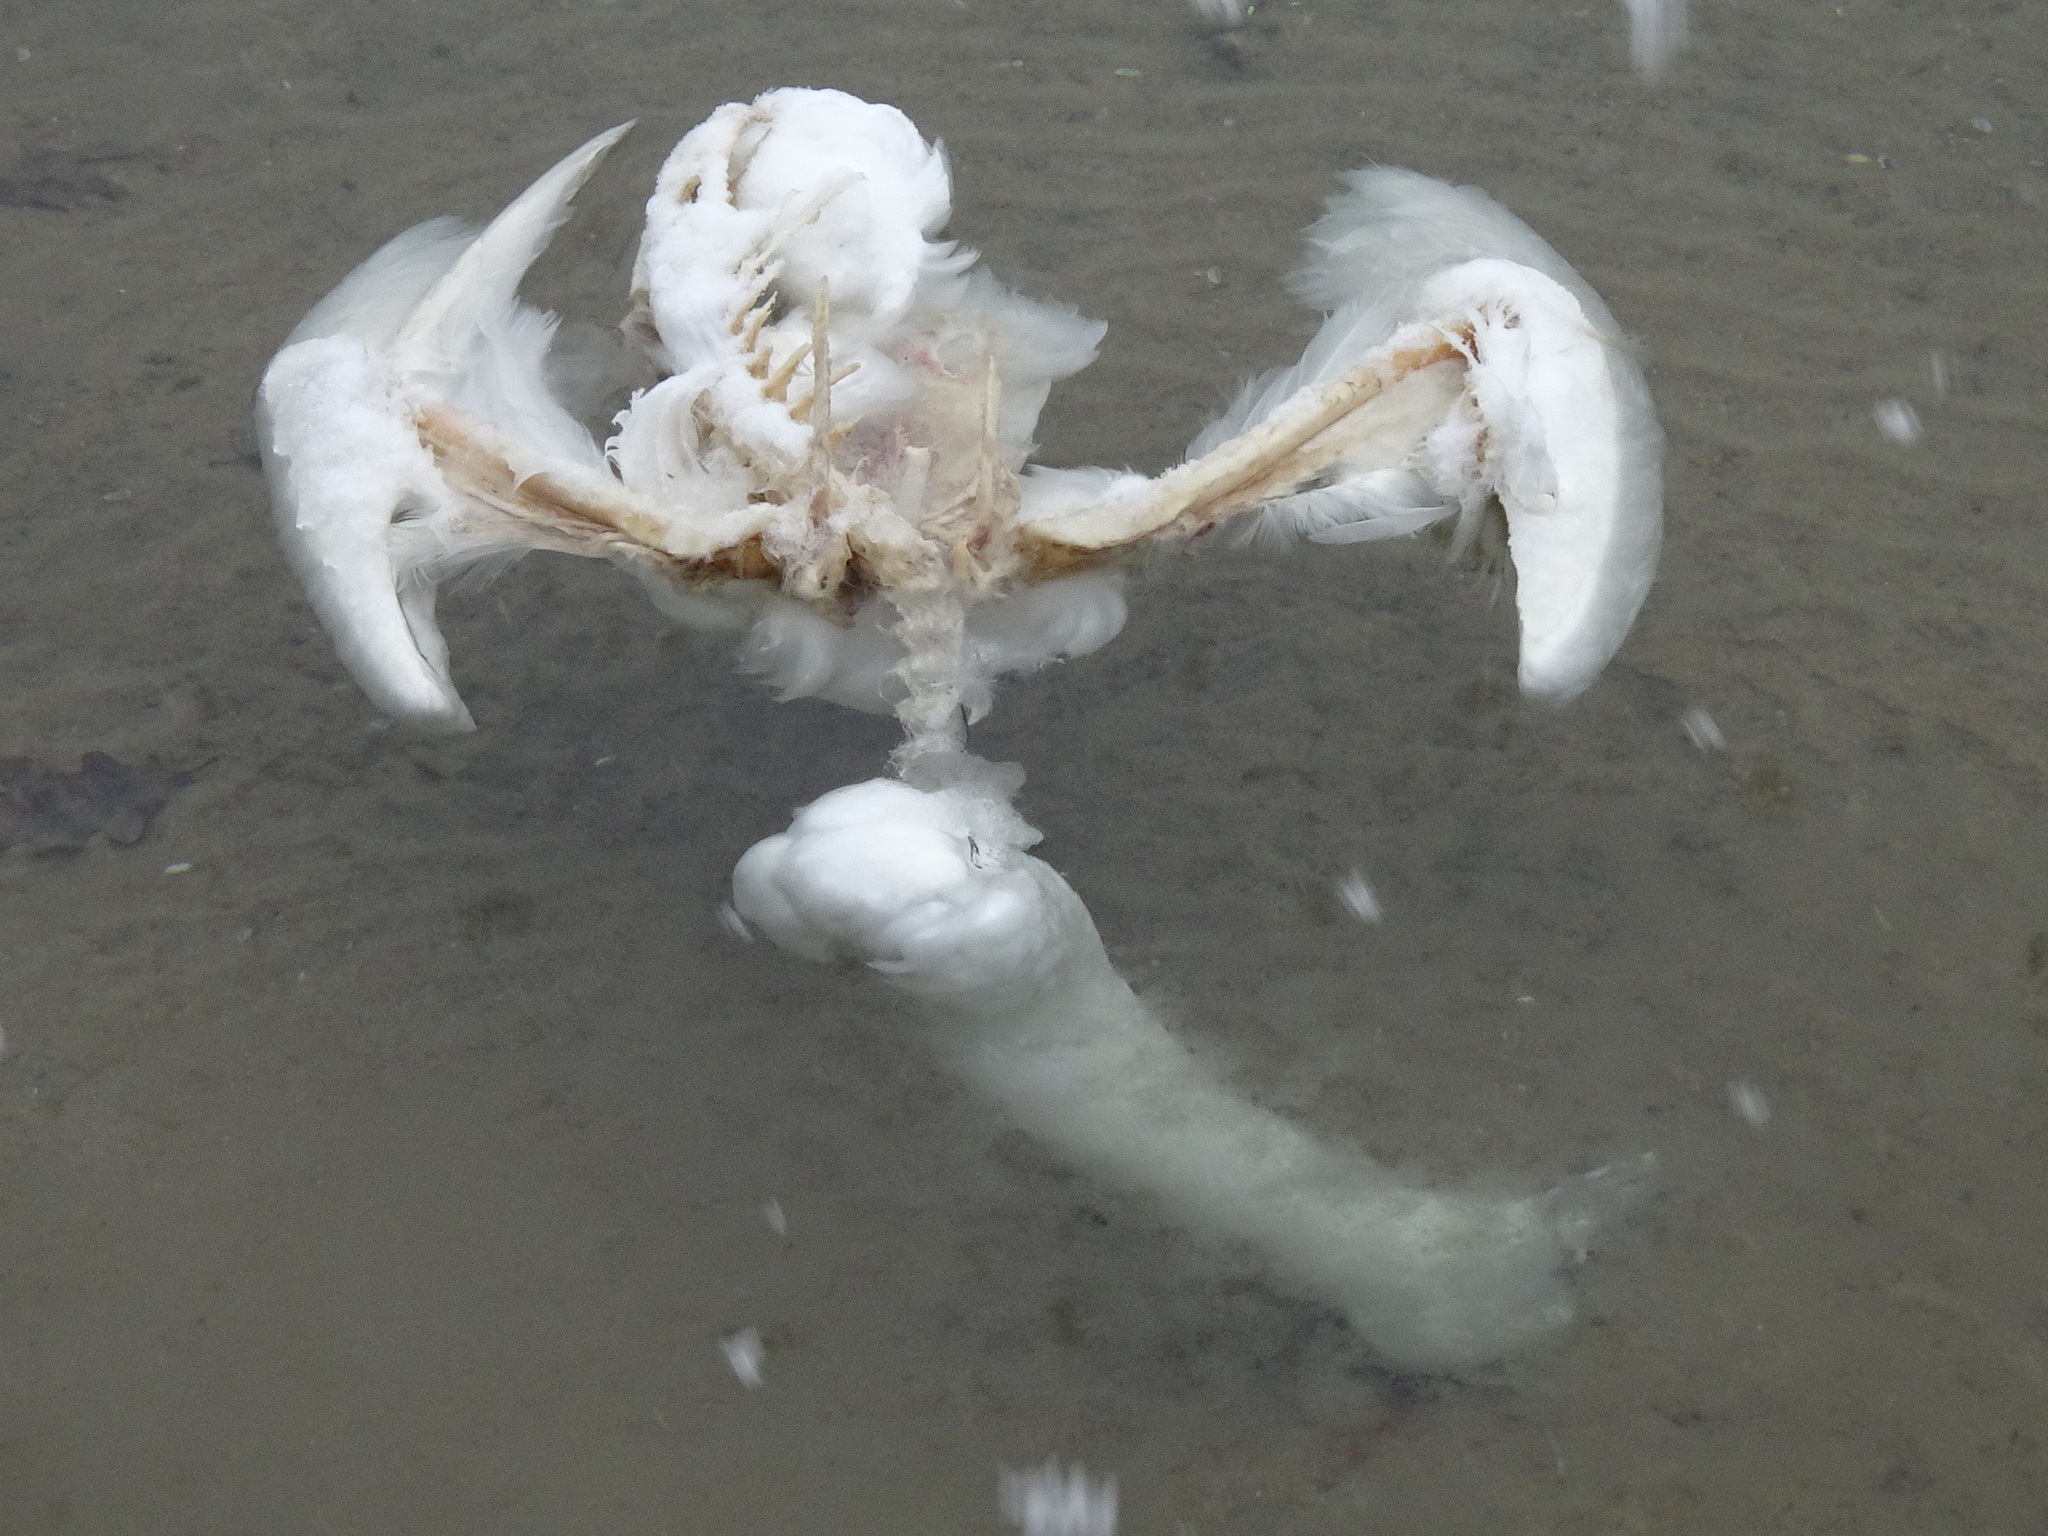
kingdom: Animalia
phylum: Chordata
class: Aves
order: Anseriformes
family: Anatidae
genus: Cygnus
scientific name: Cygnus olor
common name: Mute swan
